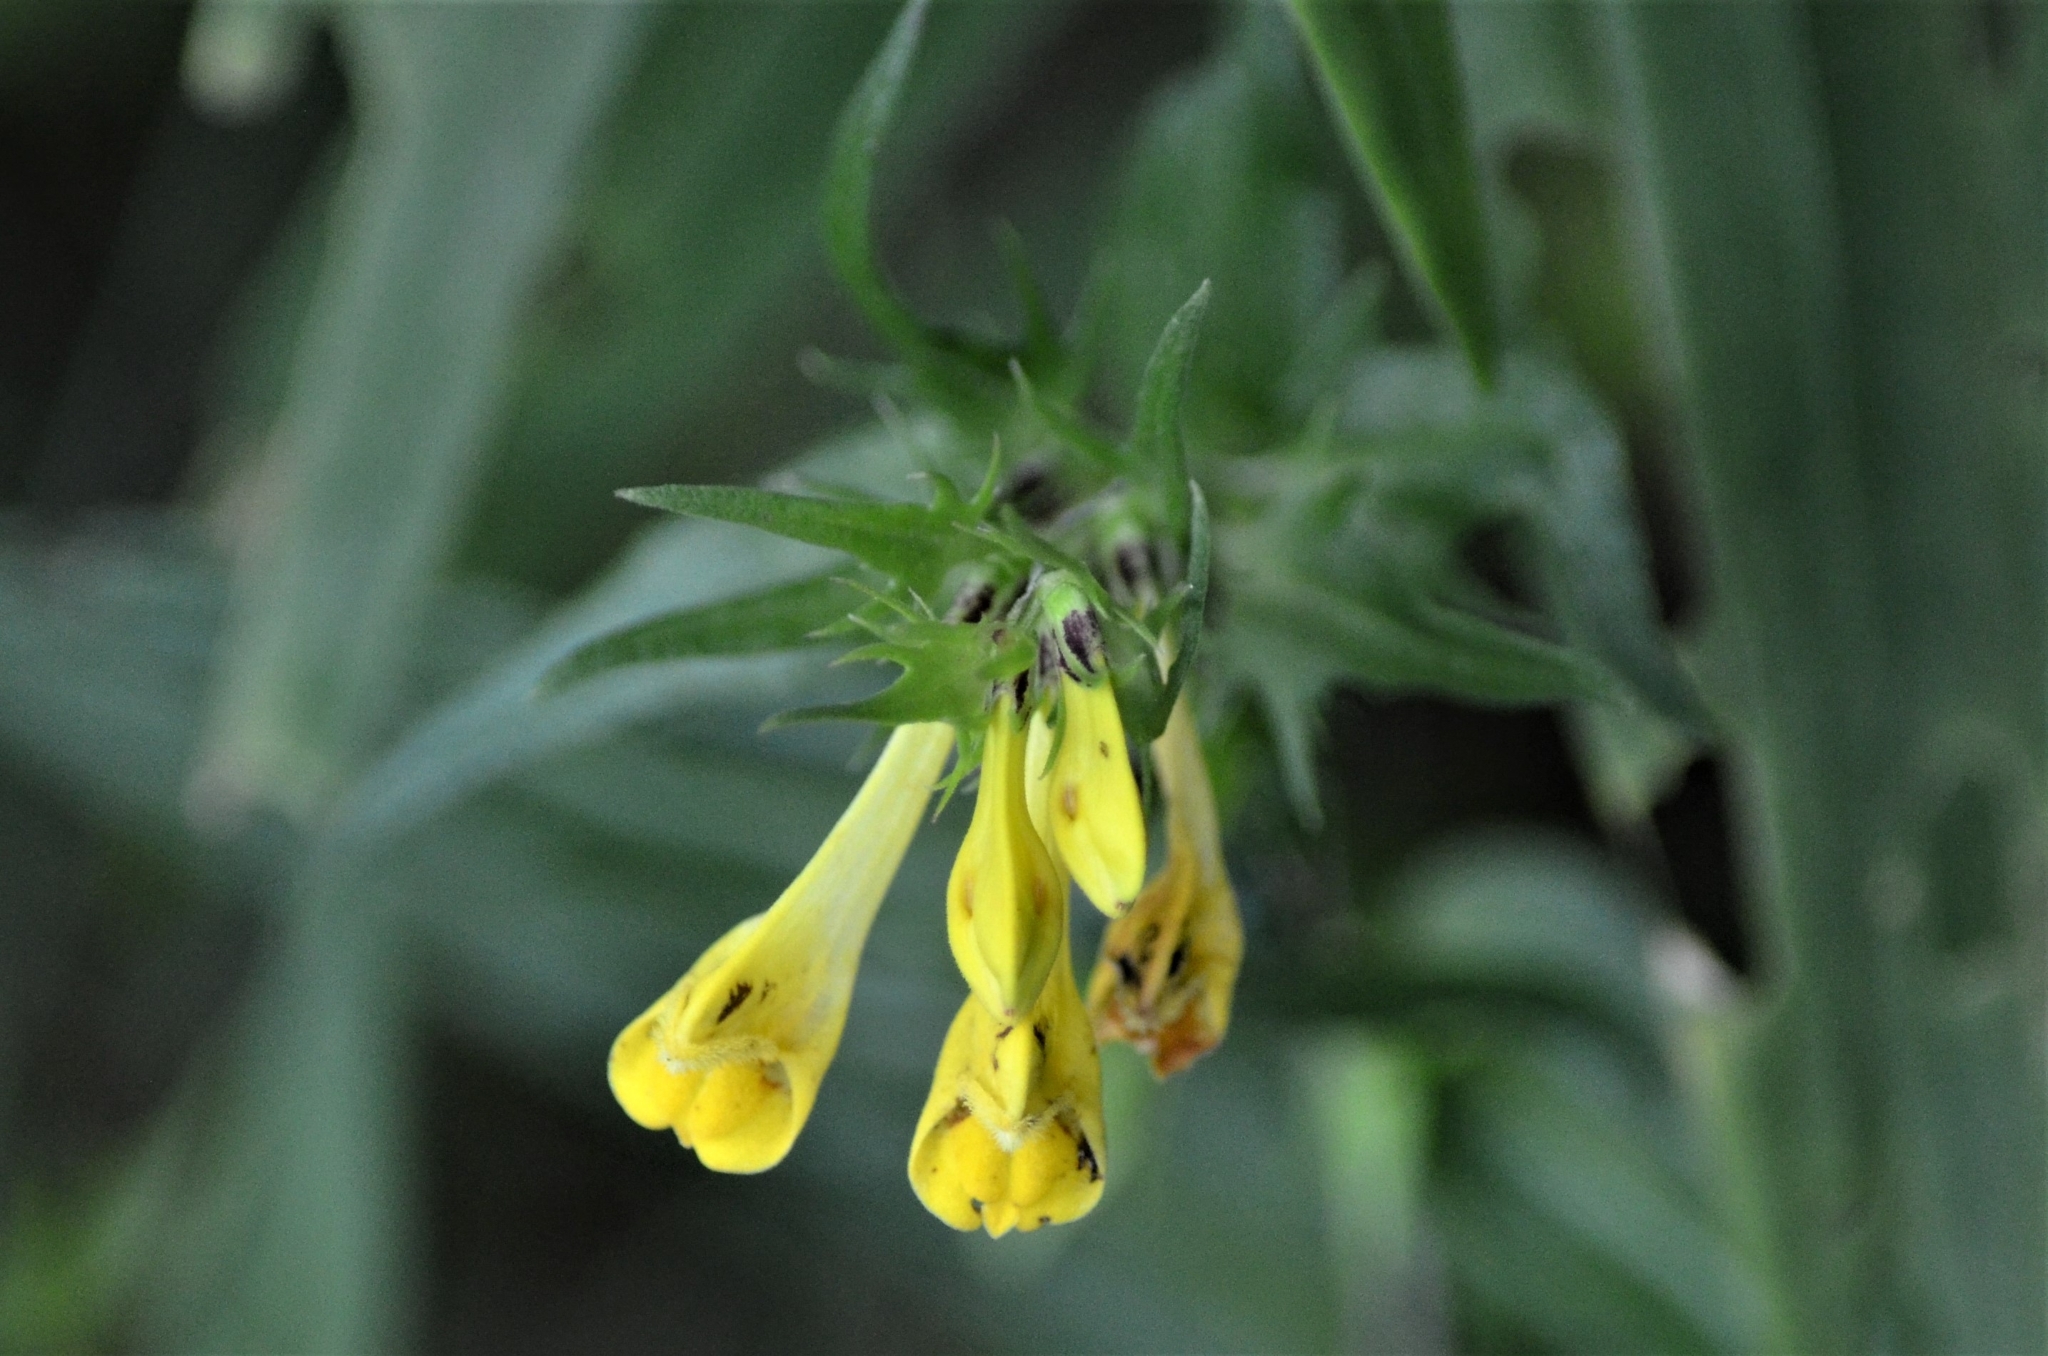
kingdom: Plantae
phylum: Tracheophyta
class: Magnoliopsida
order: Lamiales
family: Orobanchaceae
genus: Melampyrum
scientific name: Melampyrum pratense
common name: Common cow-wheat
